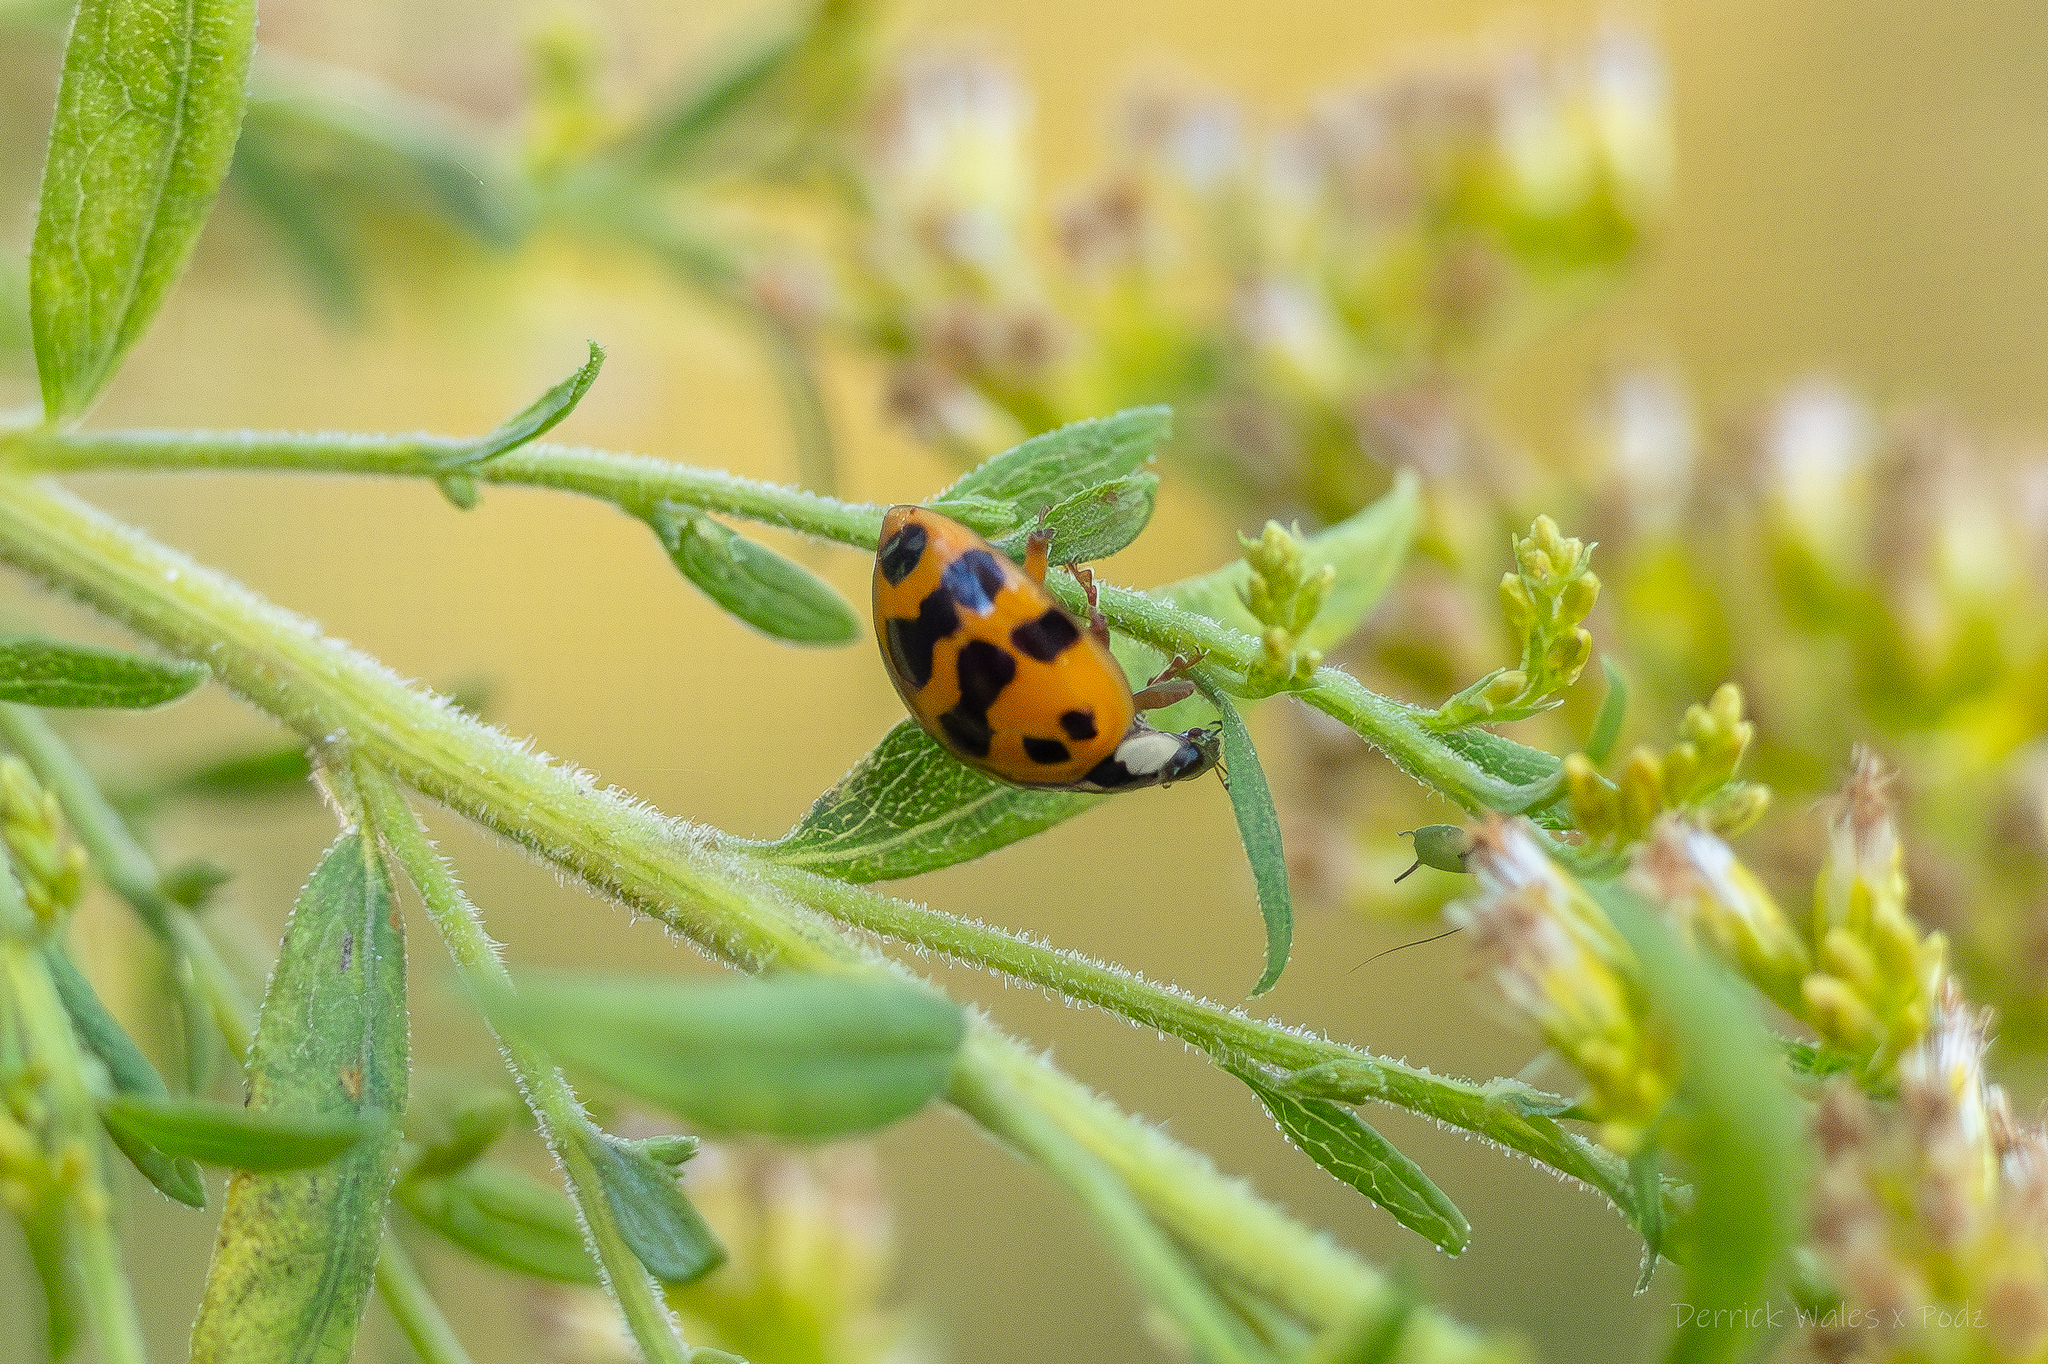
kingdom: Animalia
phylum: Arthropoda
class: Insecta
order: Coleoptera
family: Coccinellidae
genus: Harmonia
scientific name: Harmonia axyridis
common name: Harlequin ladybird
